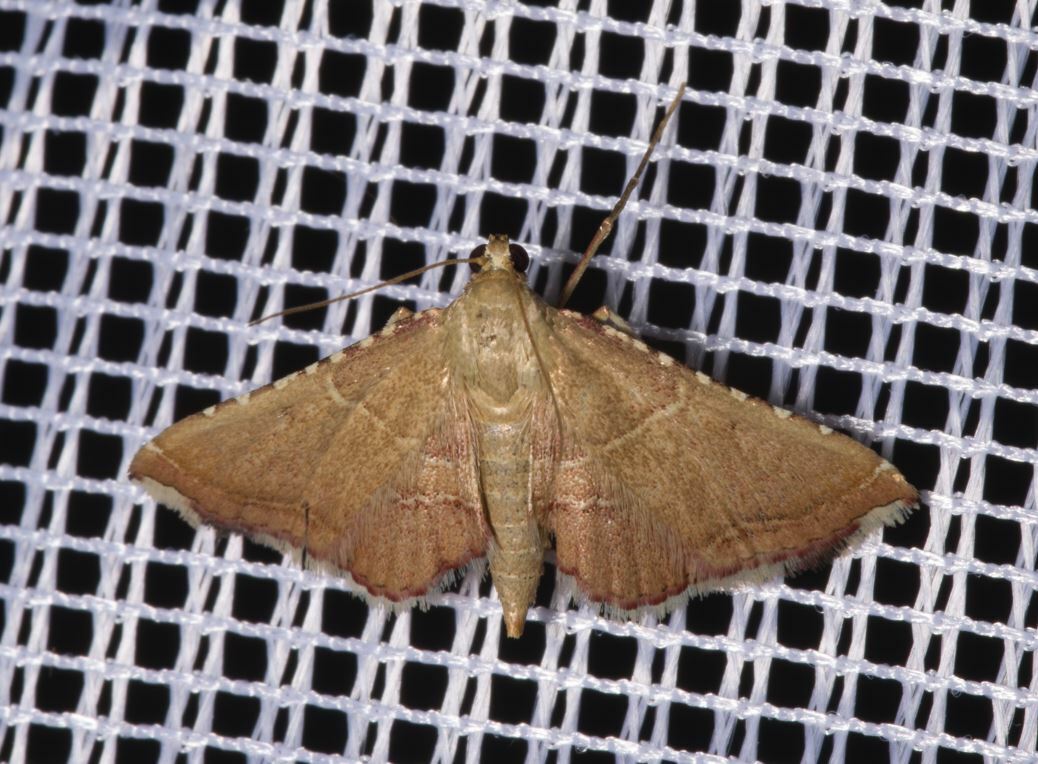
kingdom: Animalia
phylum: Arthropoda
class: Insecta
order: Lepidoptera
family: Pyralidae
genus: Endotricha
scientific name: Endotricha flammealis
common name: Rosy tabby
